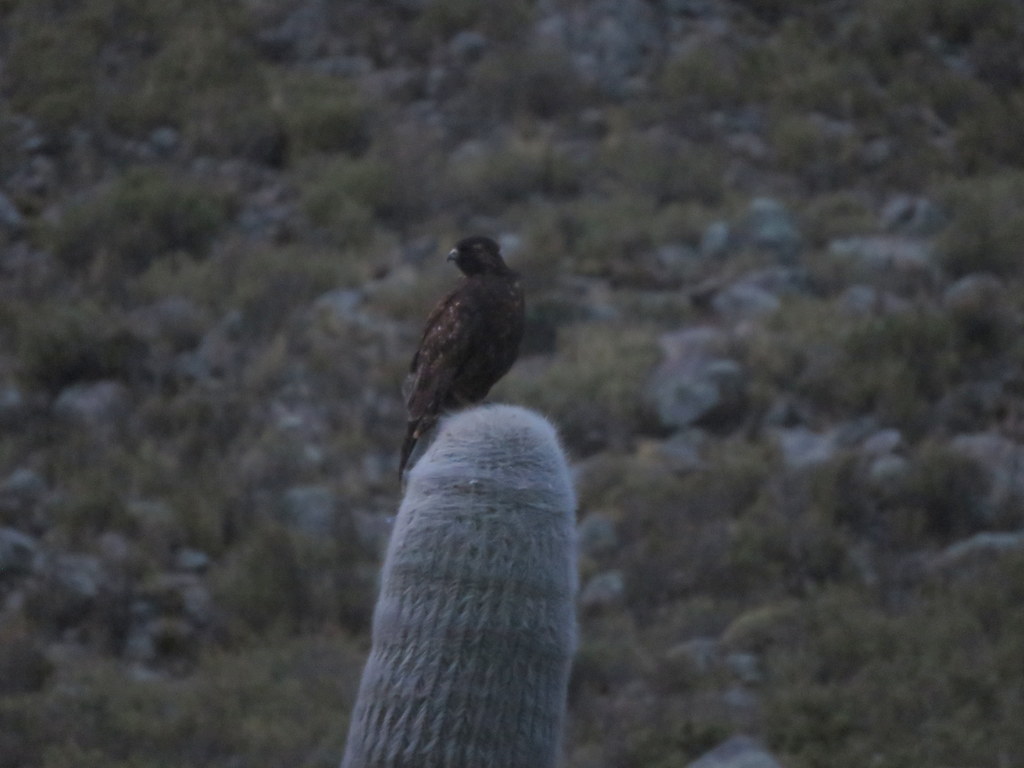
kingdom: Animalia
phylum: Chordata
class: Aves
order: Accipitriformes
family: Accipitridae
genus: Buteo
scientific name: Buteo polyosoma
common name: Variable hawk
